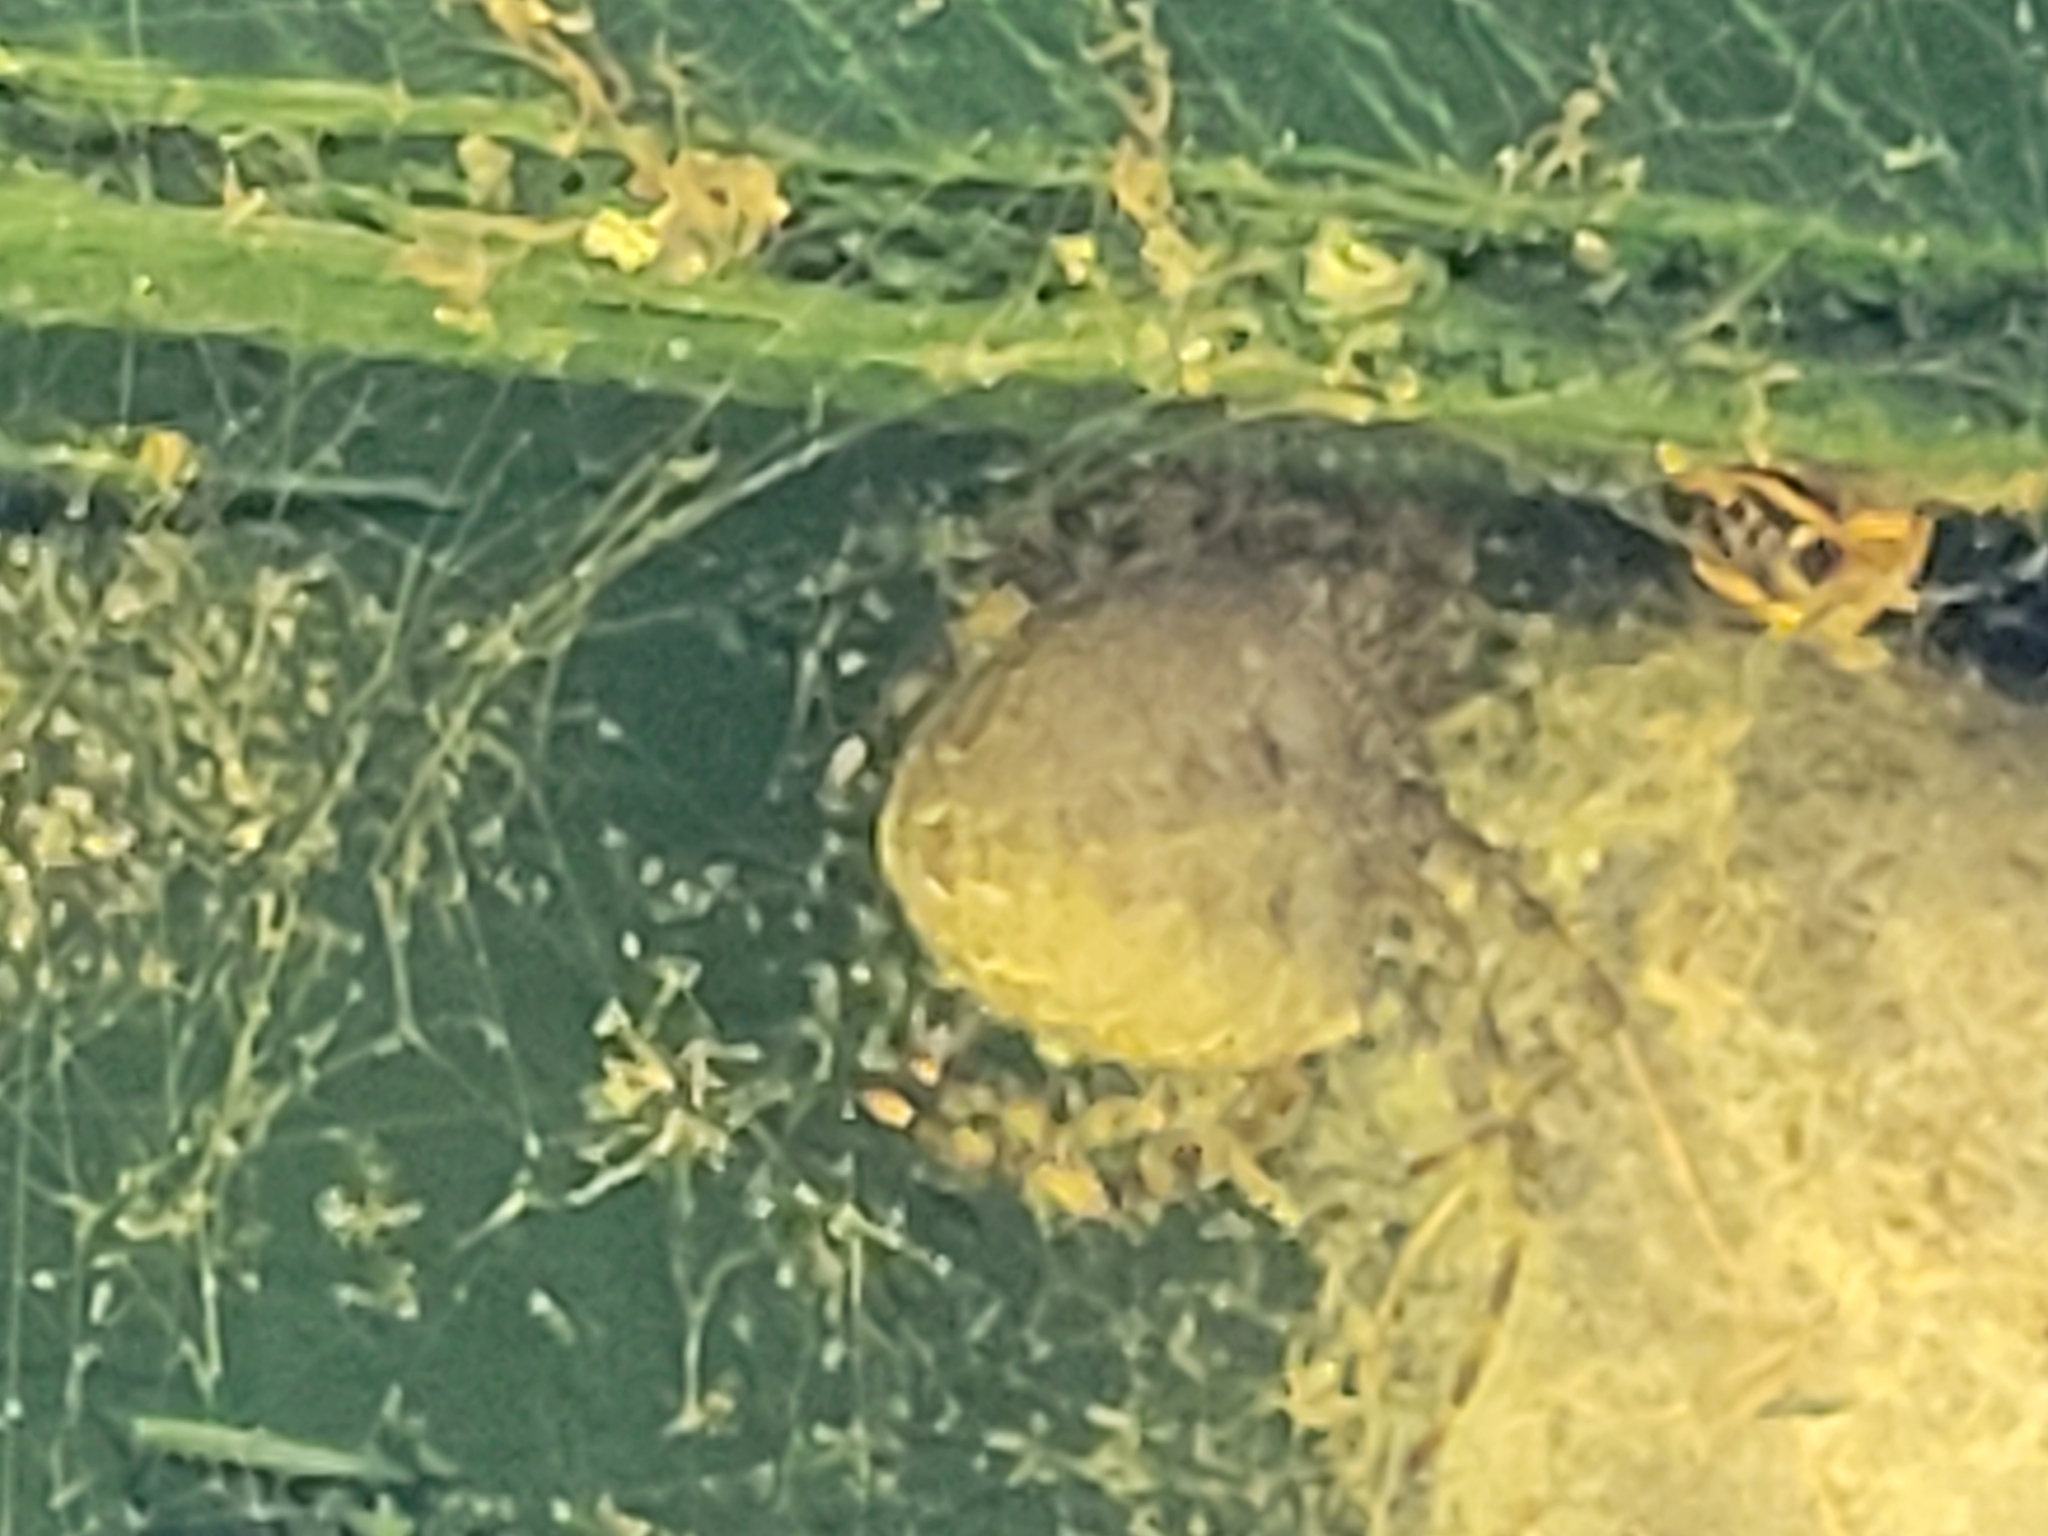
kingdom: Animalia
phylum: Arthropoda
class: Arachnida
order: Araneae
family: Araneidae
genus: Araneus
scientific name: Araneus cavaticus
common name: Barn orbweaver
